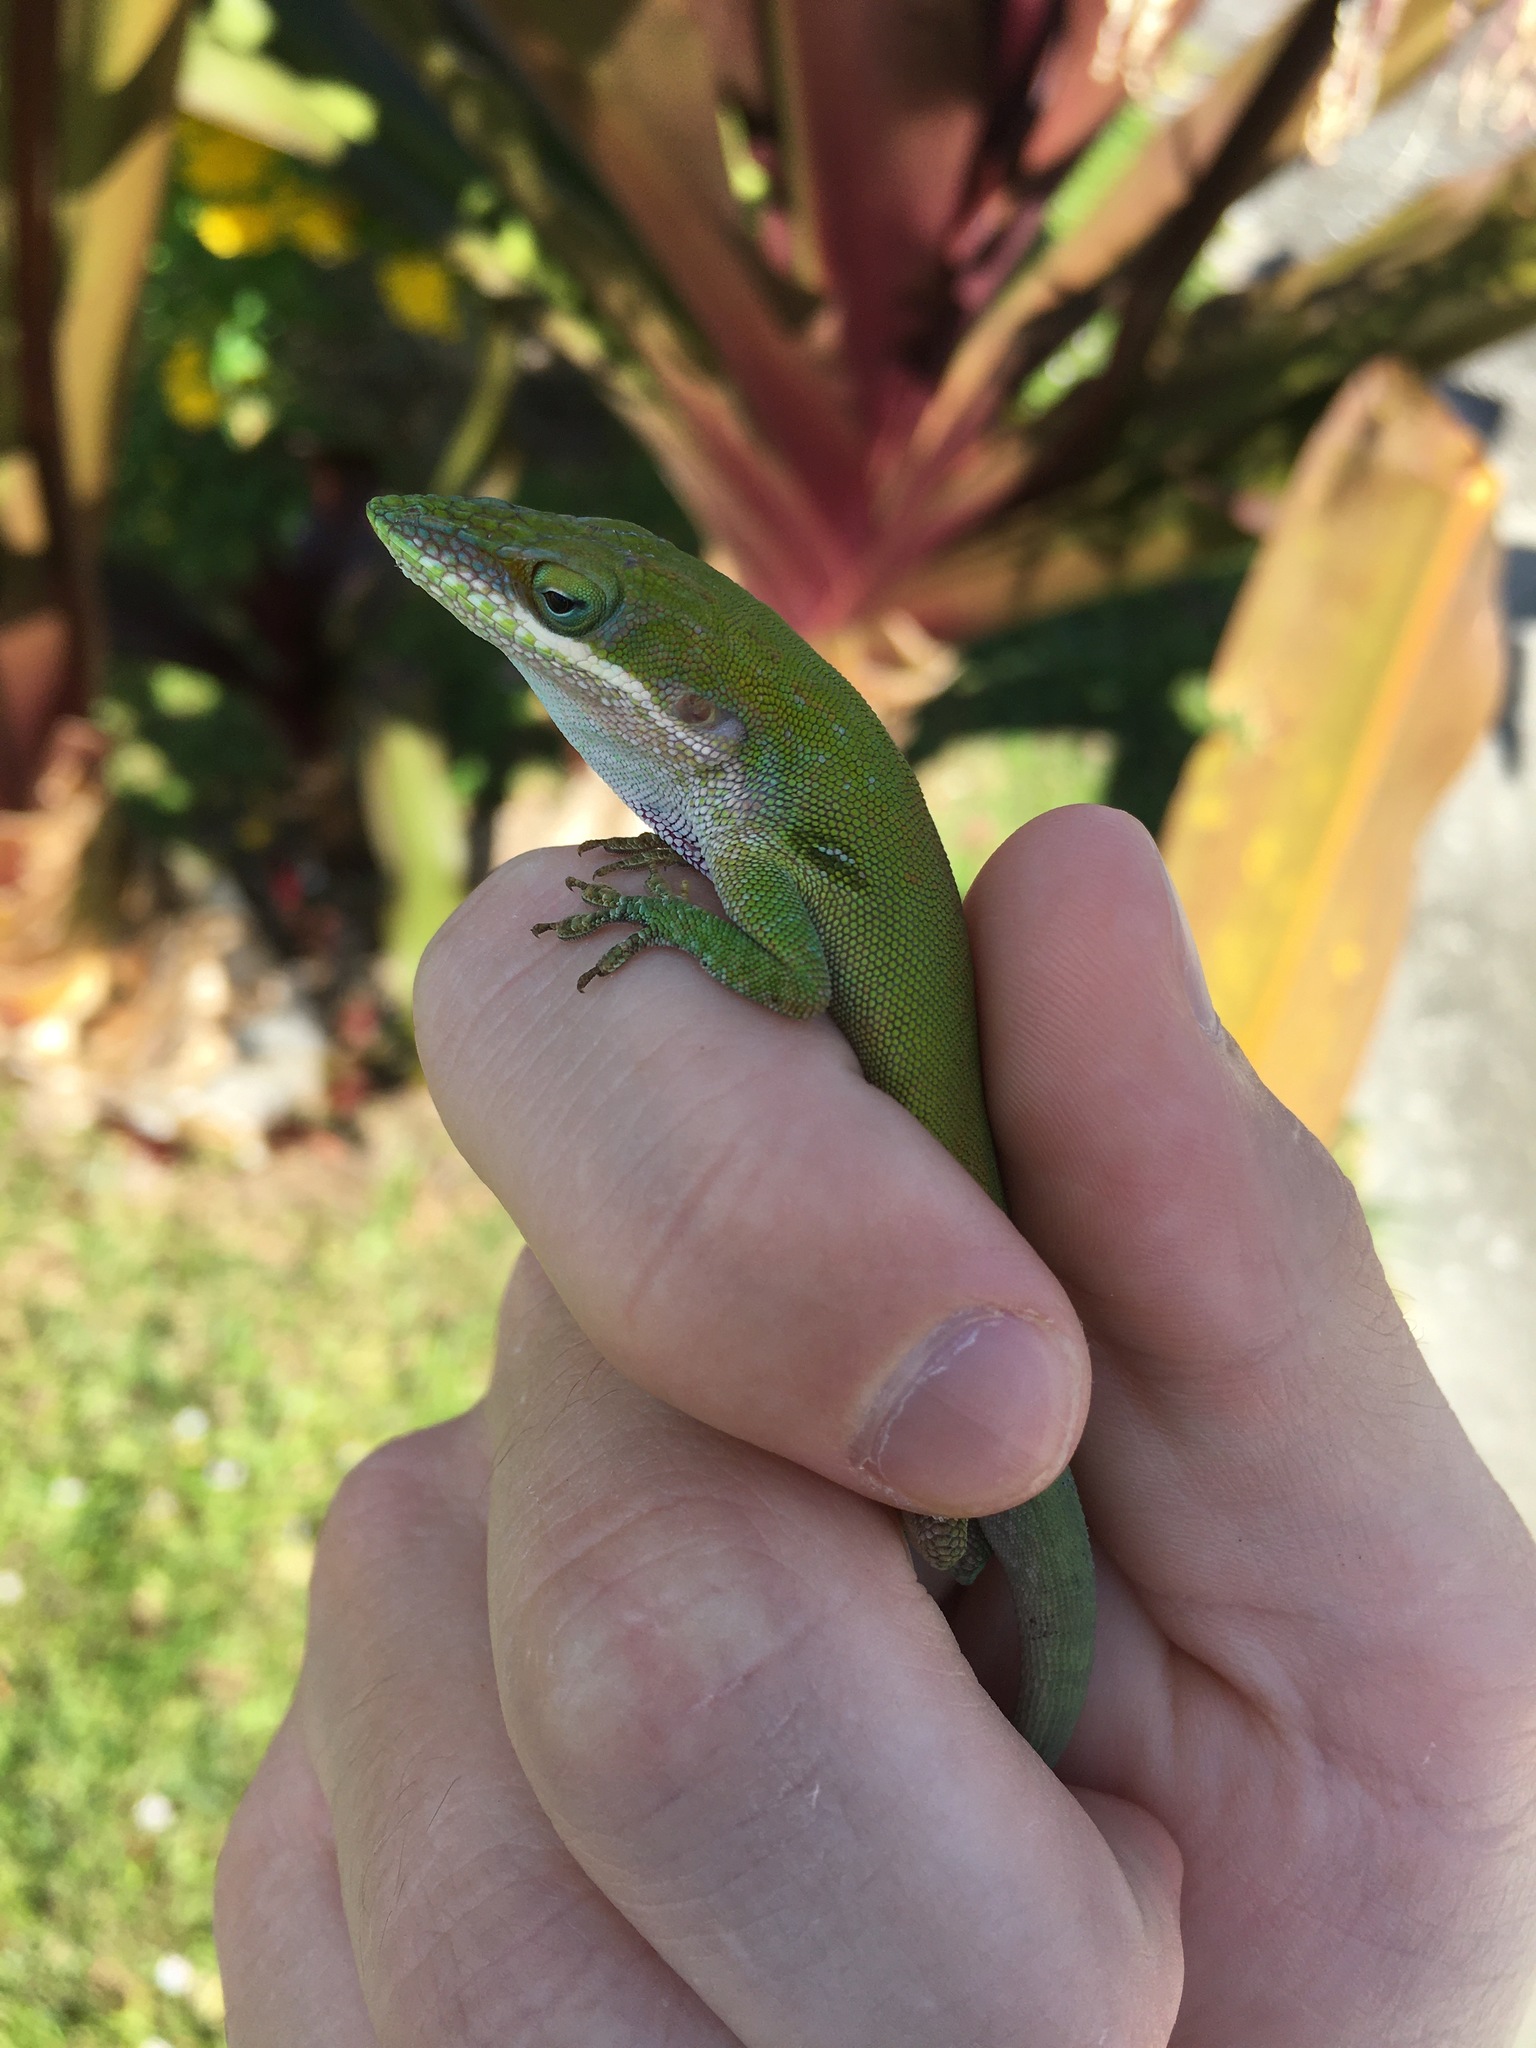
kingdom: Animalia
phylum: Chordata
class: Squamata
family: Dactyloidae
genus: Anolis
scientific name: Anolis allisoni
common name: Allison's anole
